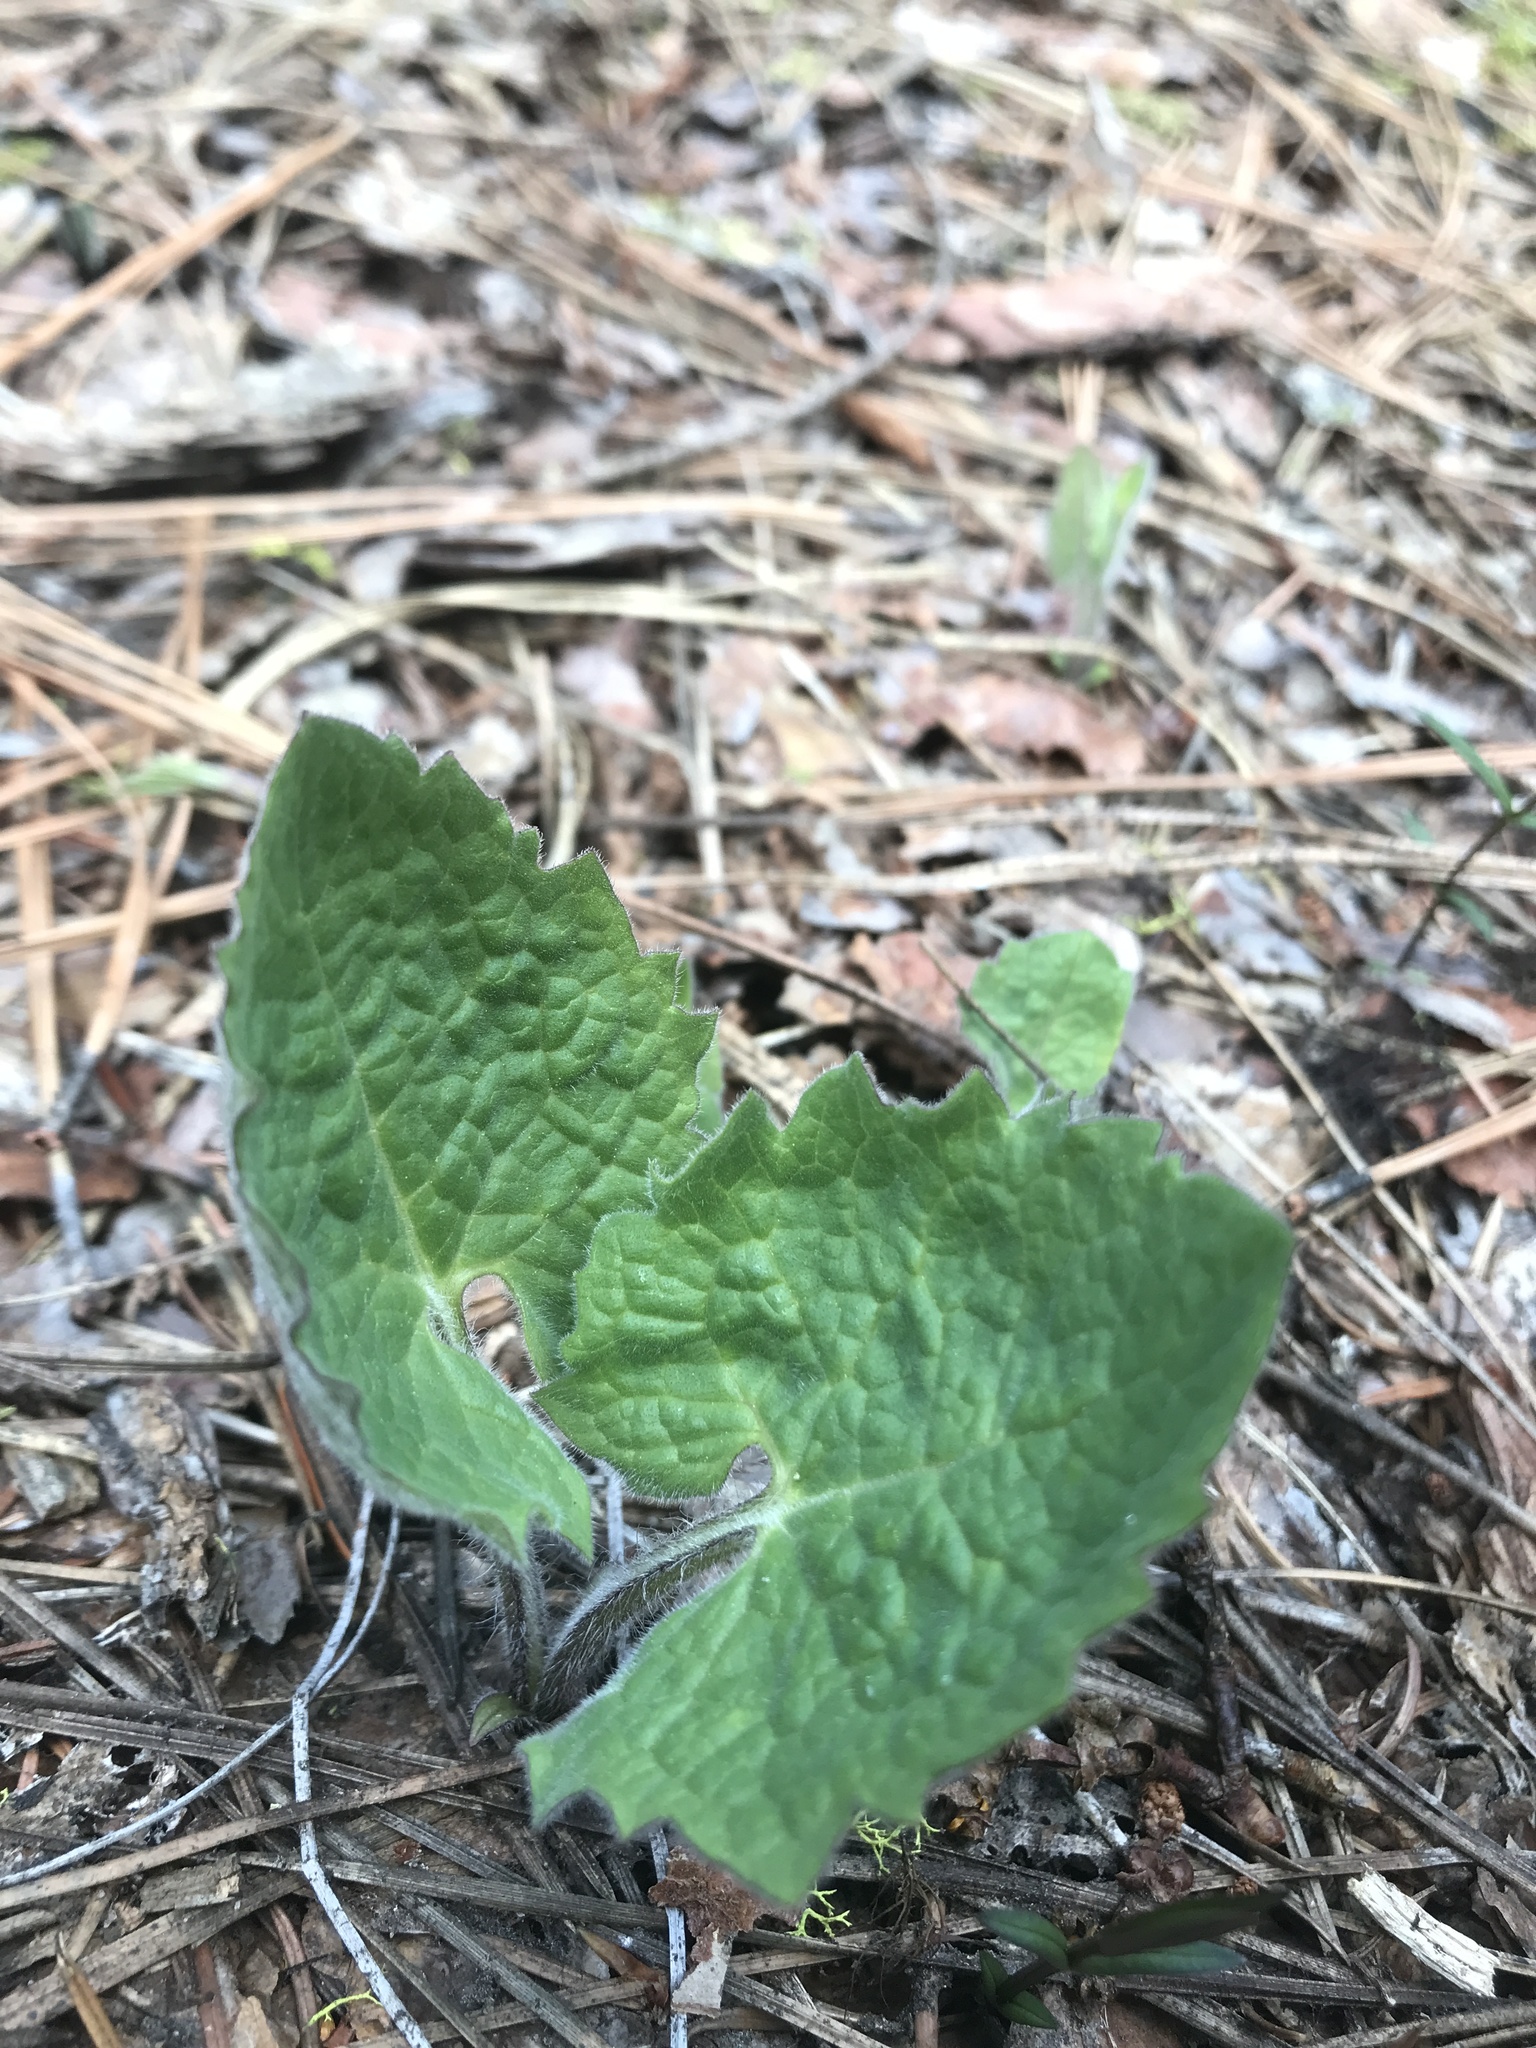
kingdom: Plantae
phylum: Tracheophyta
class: Magnoliopsida
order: Asterales
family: Asteraceae
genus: Arnica
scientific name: Arnica cordifolia
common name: Heart-leaf arnica
